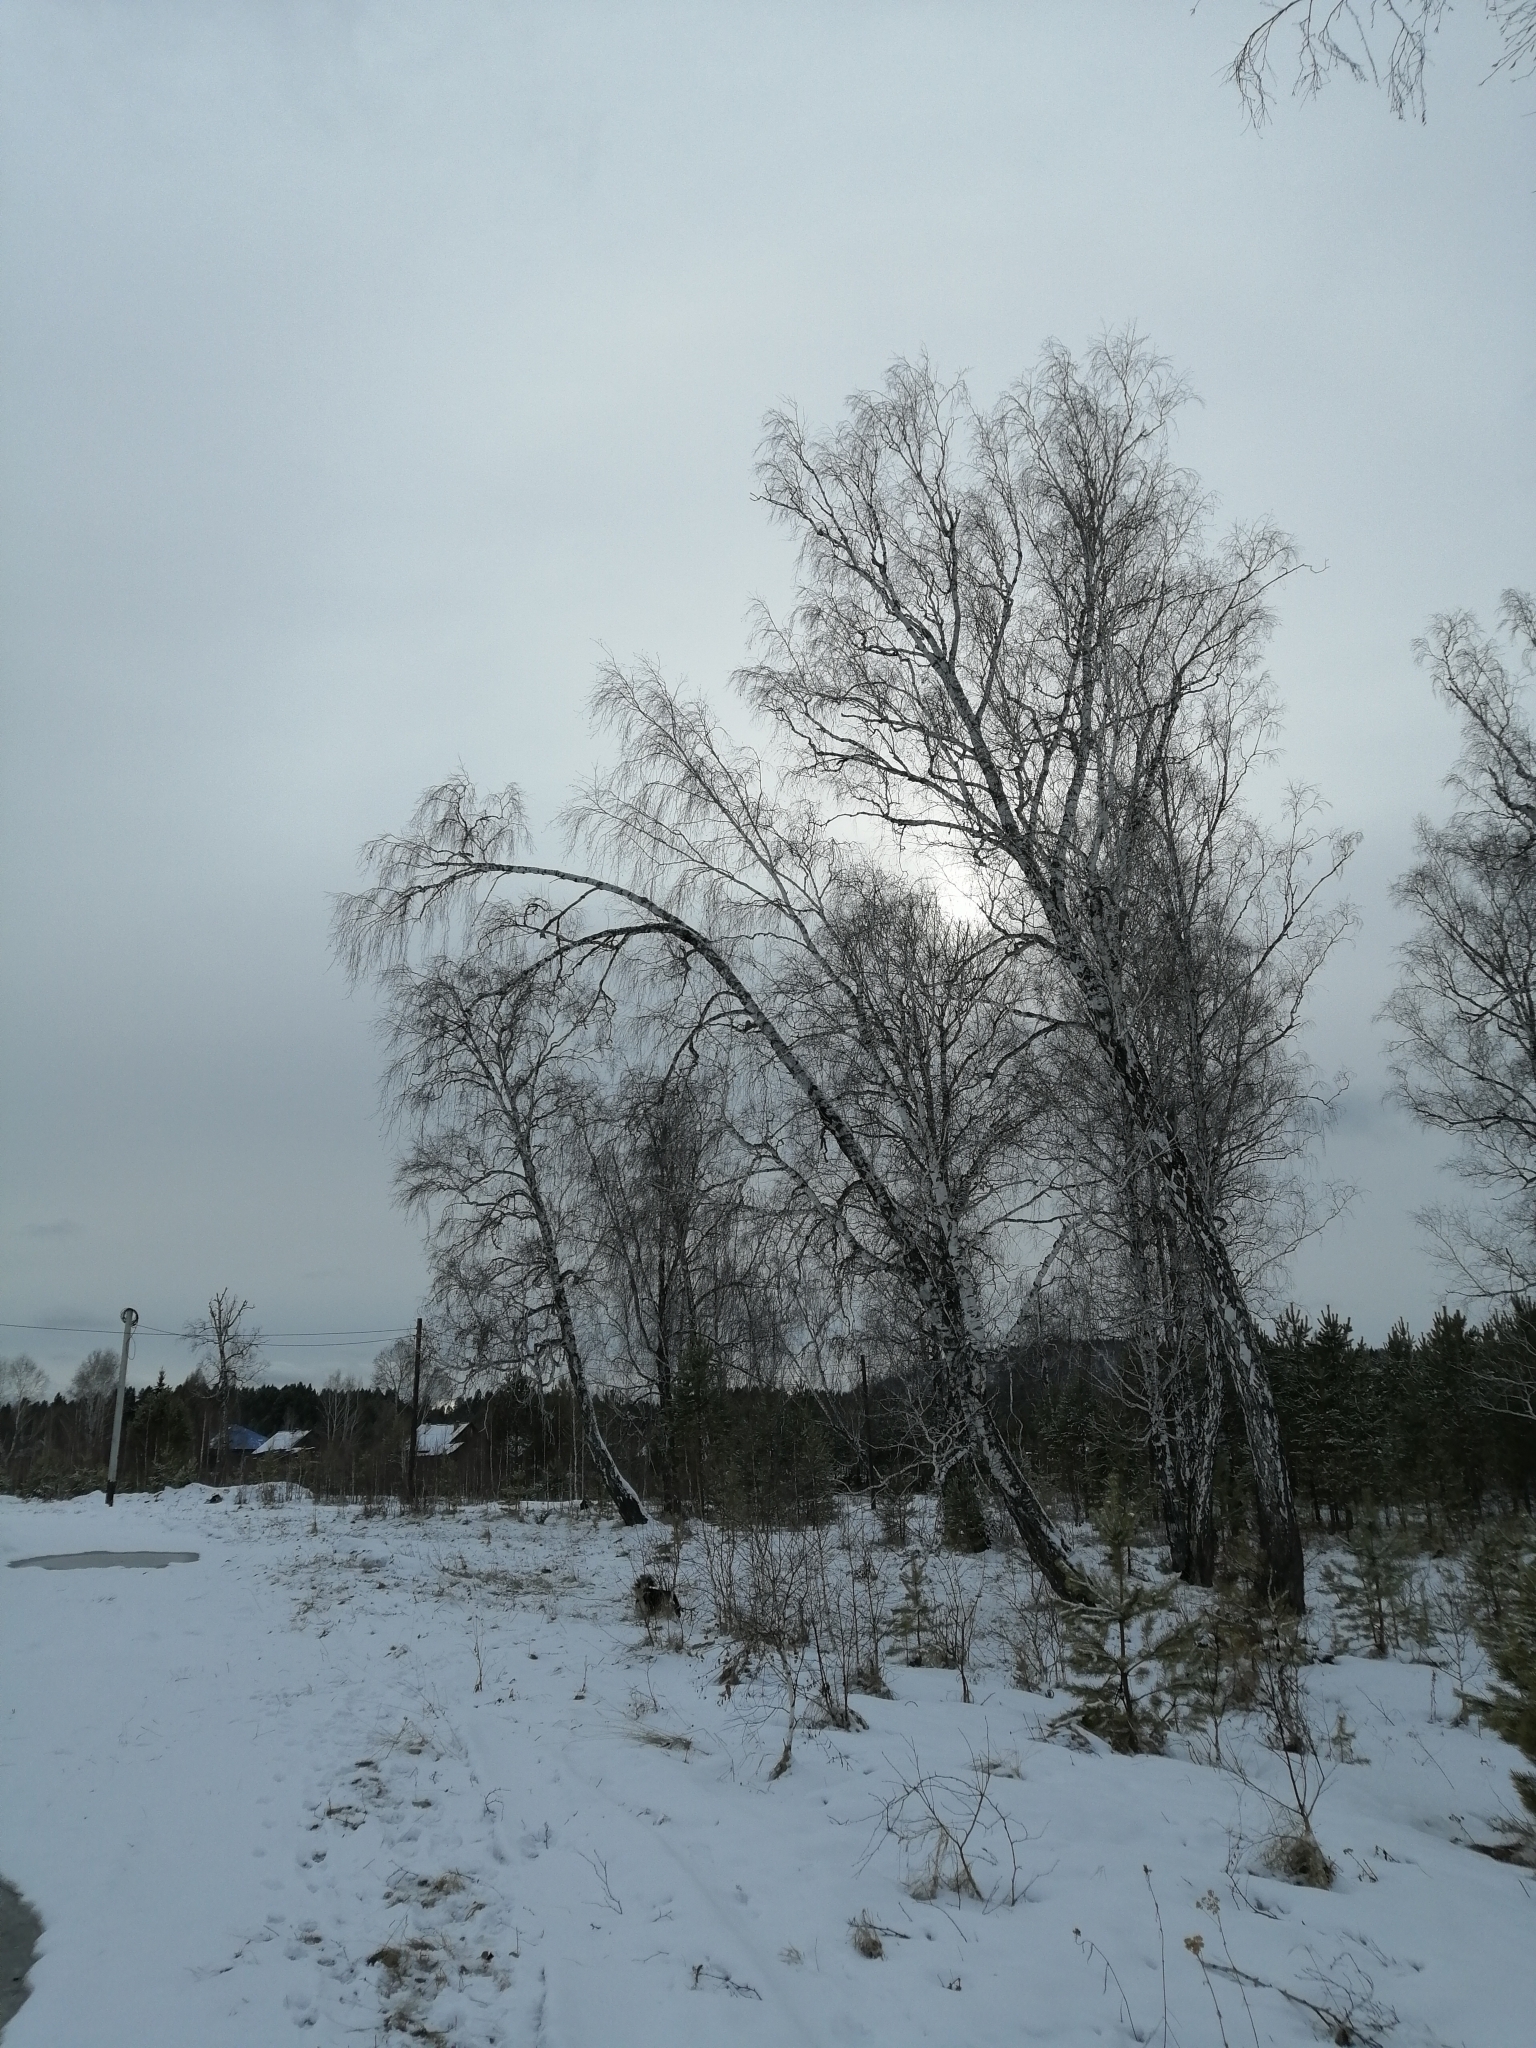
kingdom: Plantae
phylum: Tracheophyta
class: Magnoliopsida
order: Fagales
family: Betulaceae
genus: Betula
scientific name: Betula pendula
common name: Silver birch
